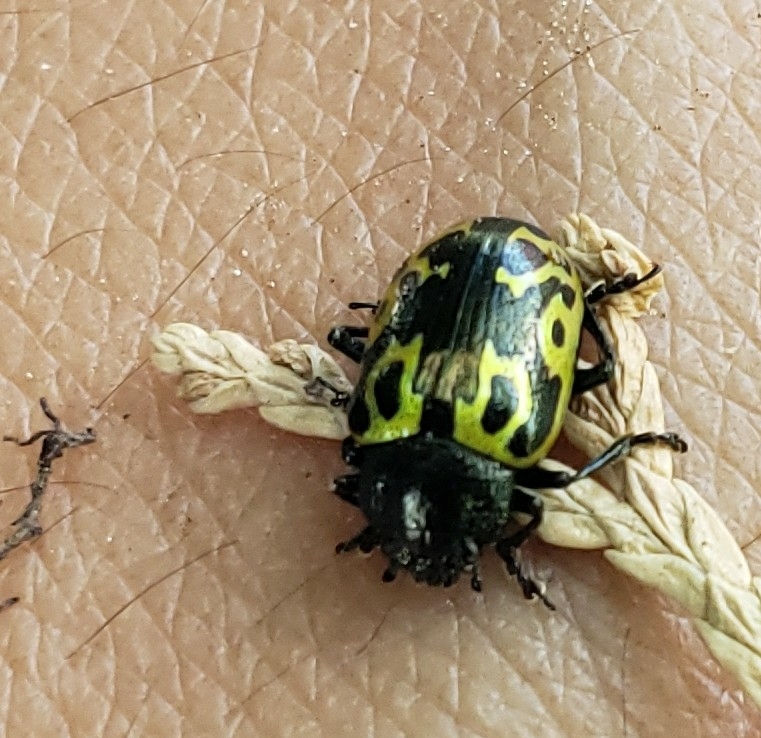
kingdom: Animalia
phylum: Arthropoda
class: Insecta
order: Coleoptera
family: Chrysomelidae
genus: Calligrapha
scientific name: Calligrapha
